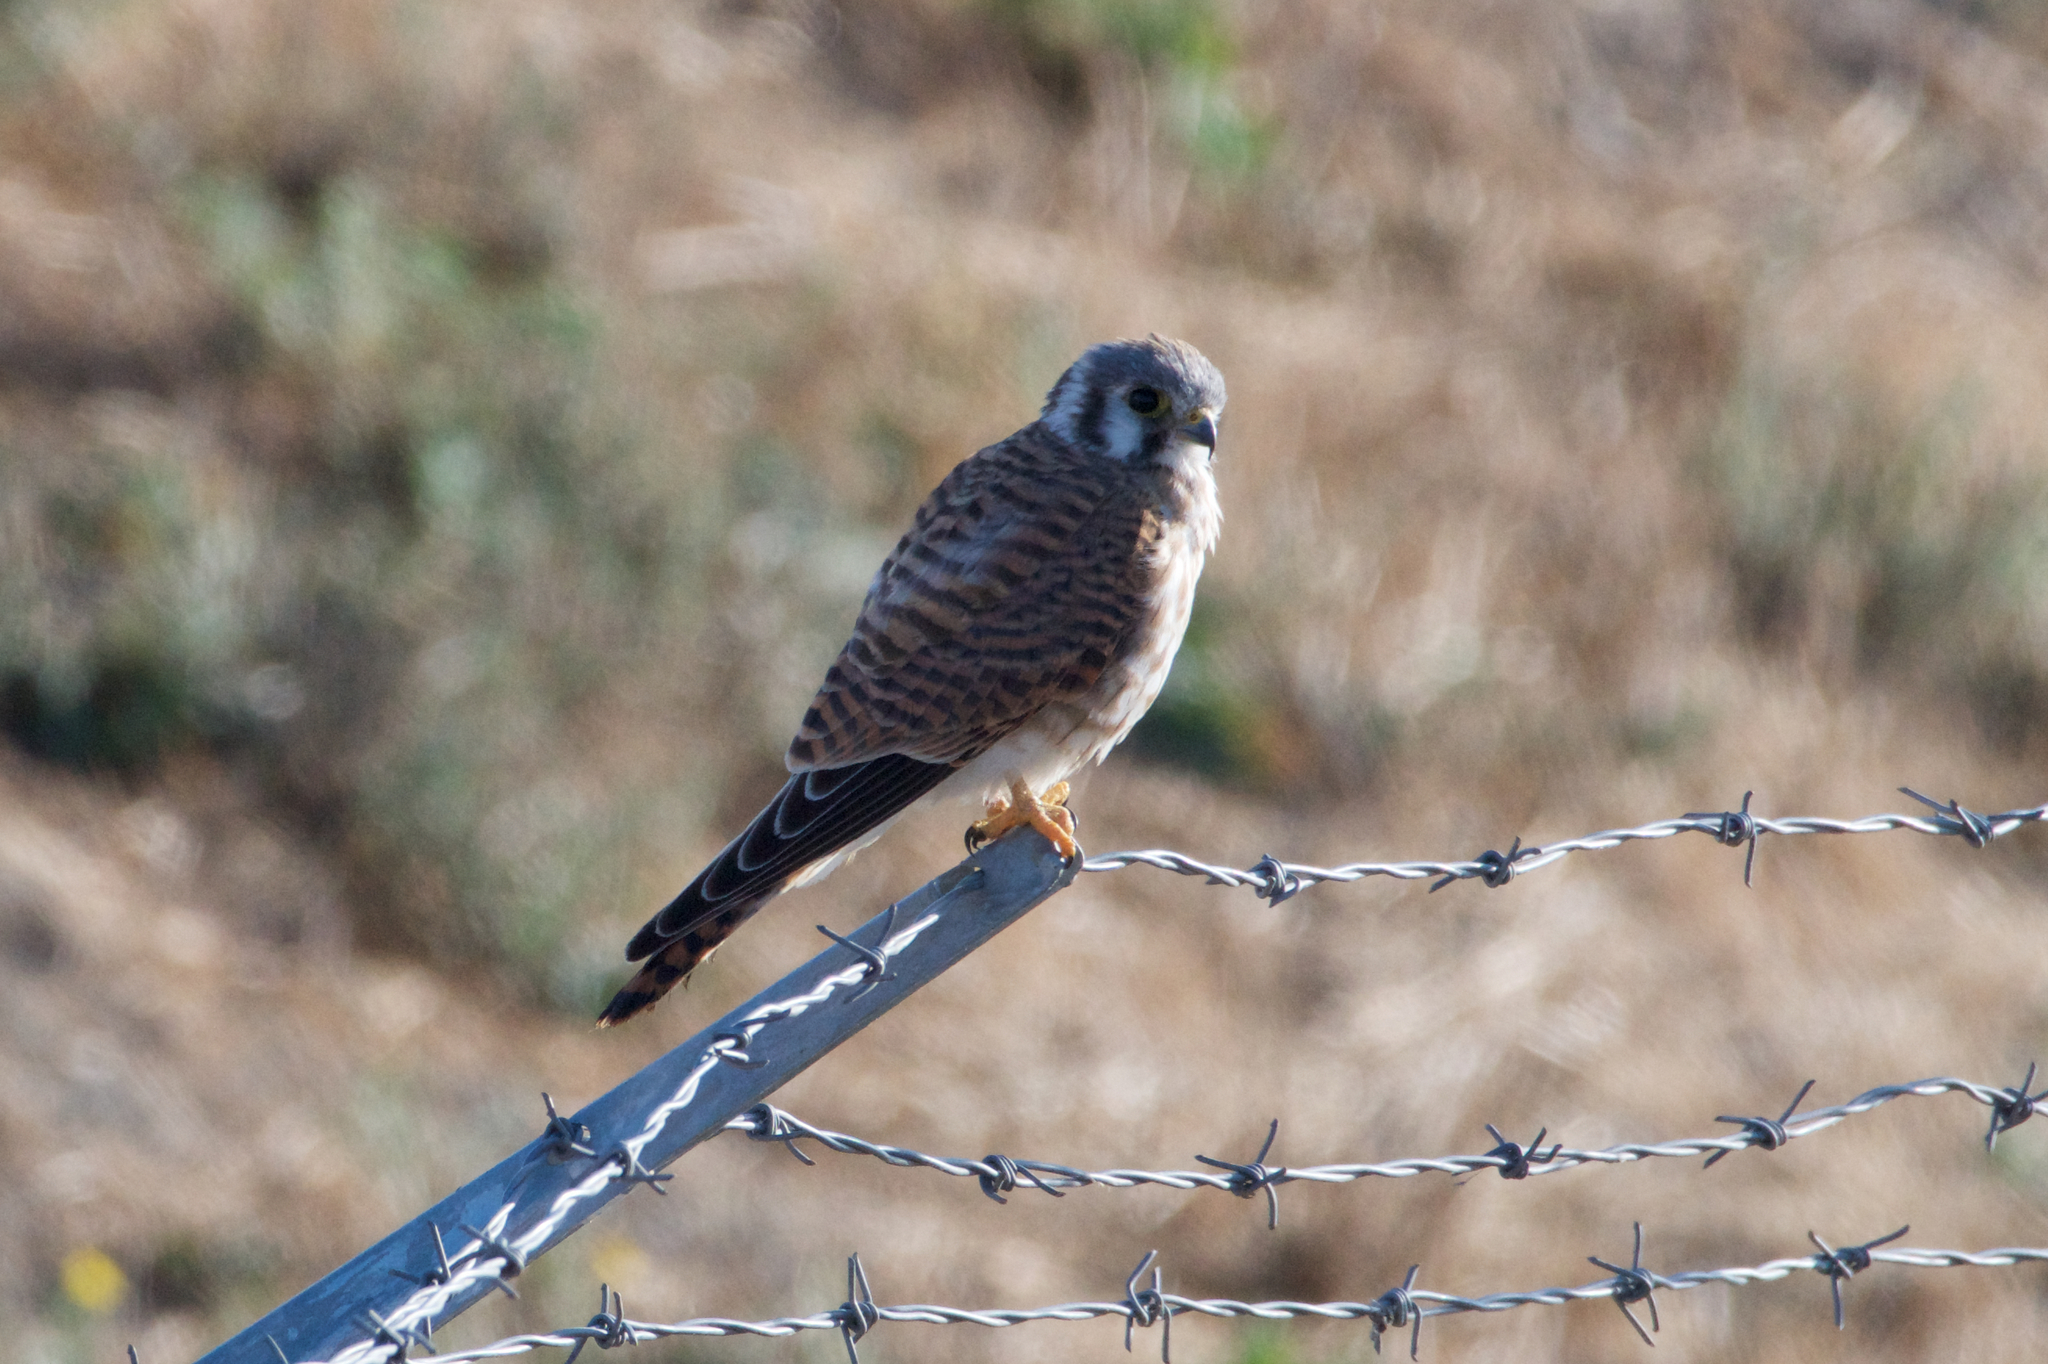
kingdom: Animalia
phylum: Chordata
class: Aves
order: Falconiformes
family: Falconidae
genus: Falco
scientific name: Falco sparverius
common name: American kestrel
